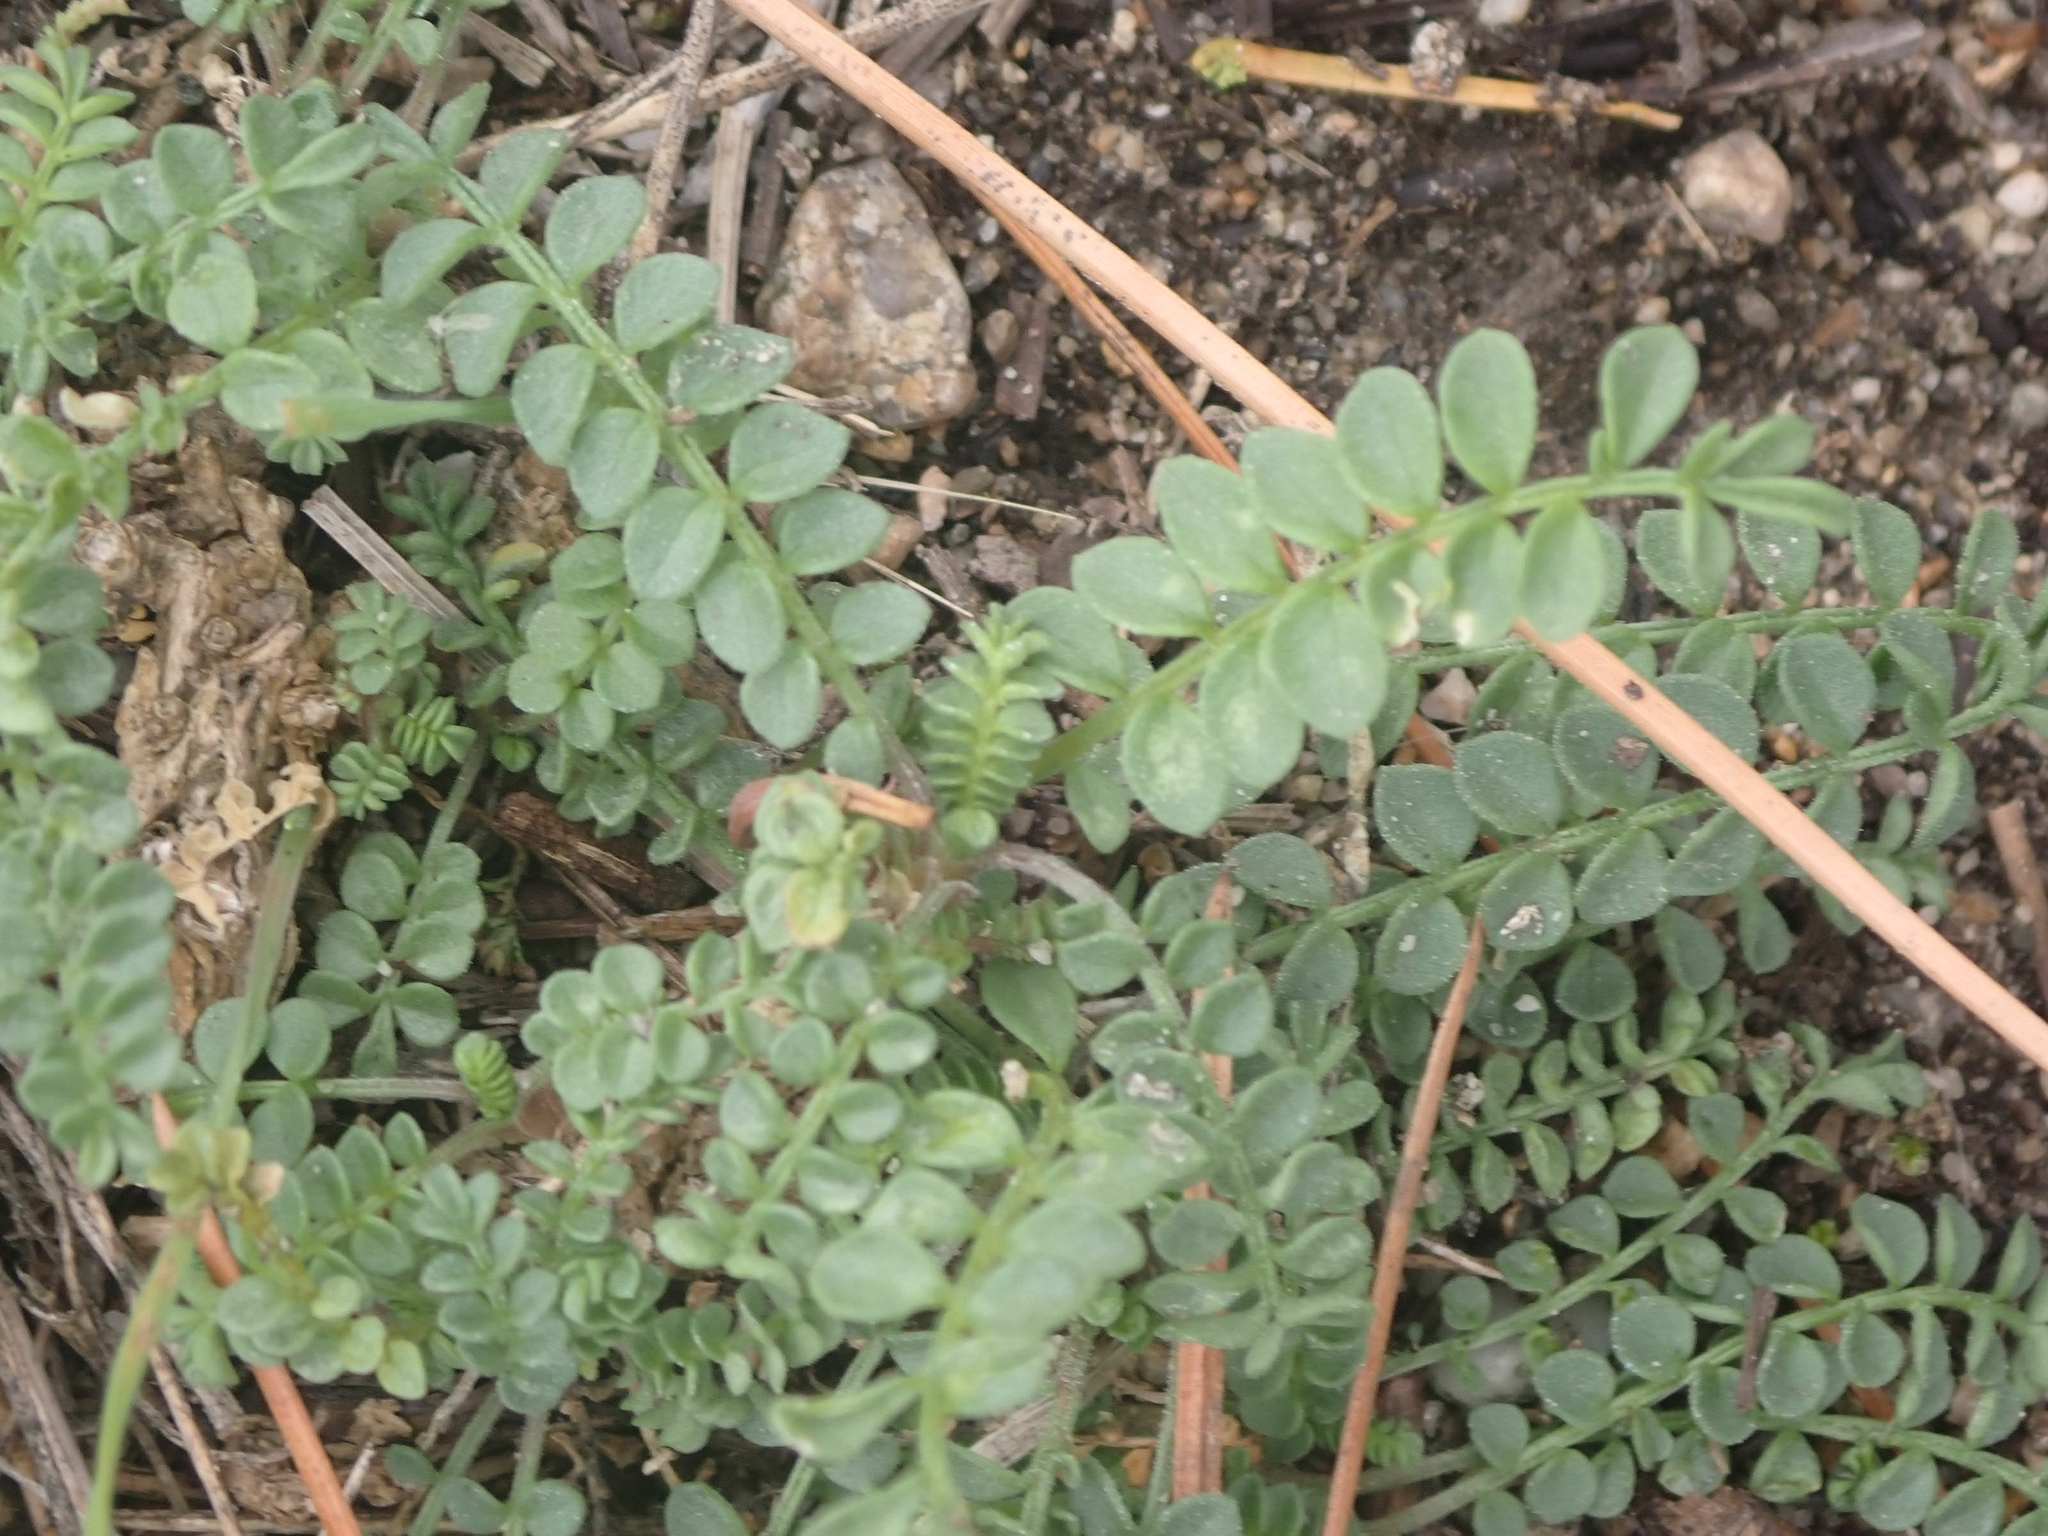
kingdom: Plantae
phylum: Tracheophyta
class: Magnoliopsida
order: Ericales
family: Polemoniaceae
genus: Polemonium
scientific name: Polemonium pulcherrimum
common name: Short jacob's-ladder
